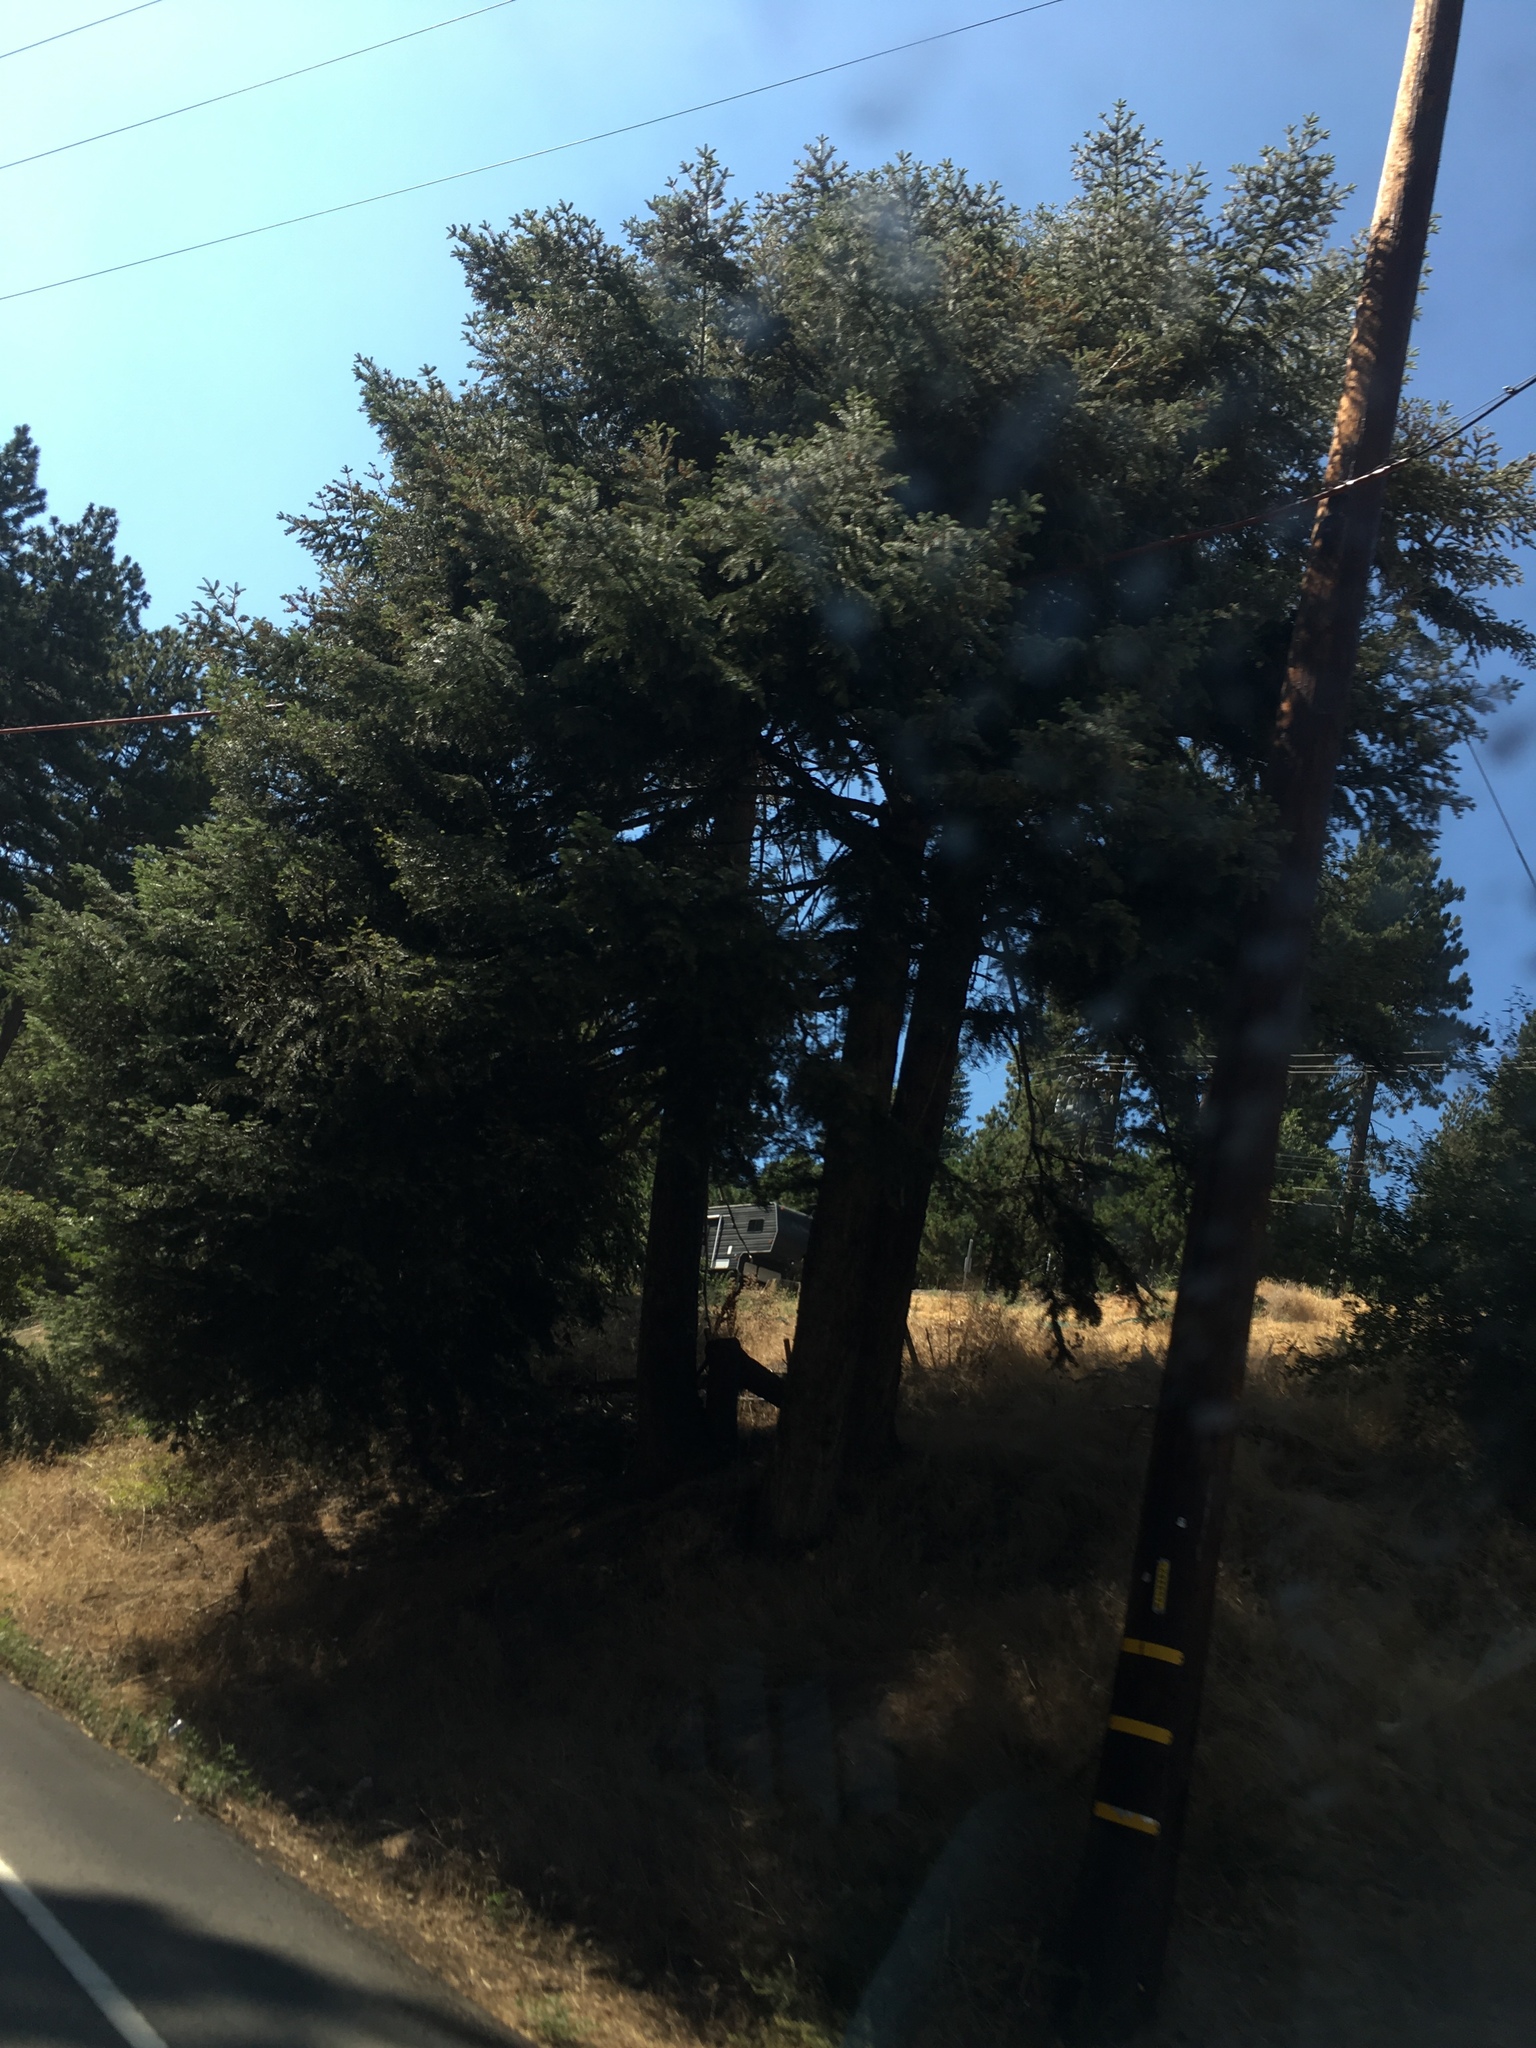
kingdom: Plantae
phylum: Tracheophyta
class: Pinopsida
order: Pinales
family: Pinaceae
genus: Abies
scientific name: Abies concolor
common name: Colorado fir
